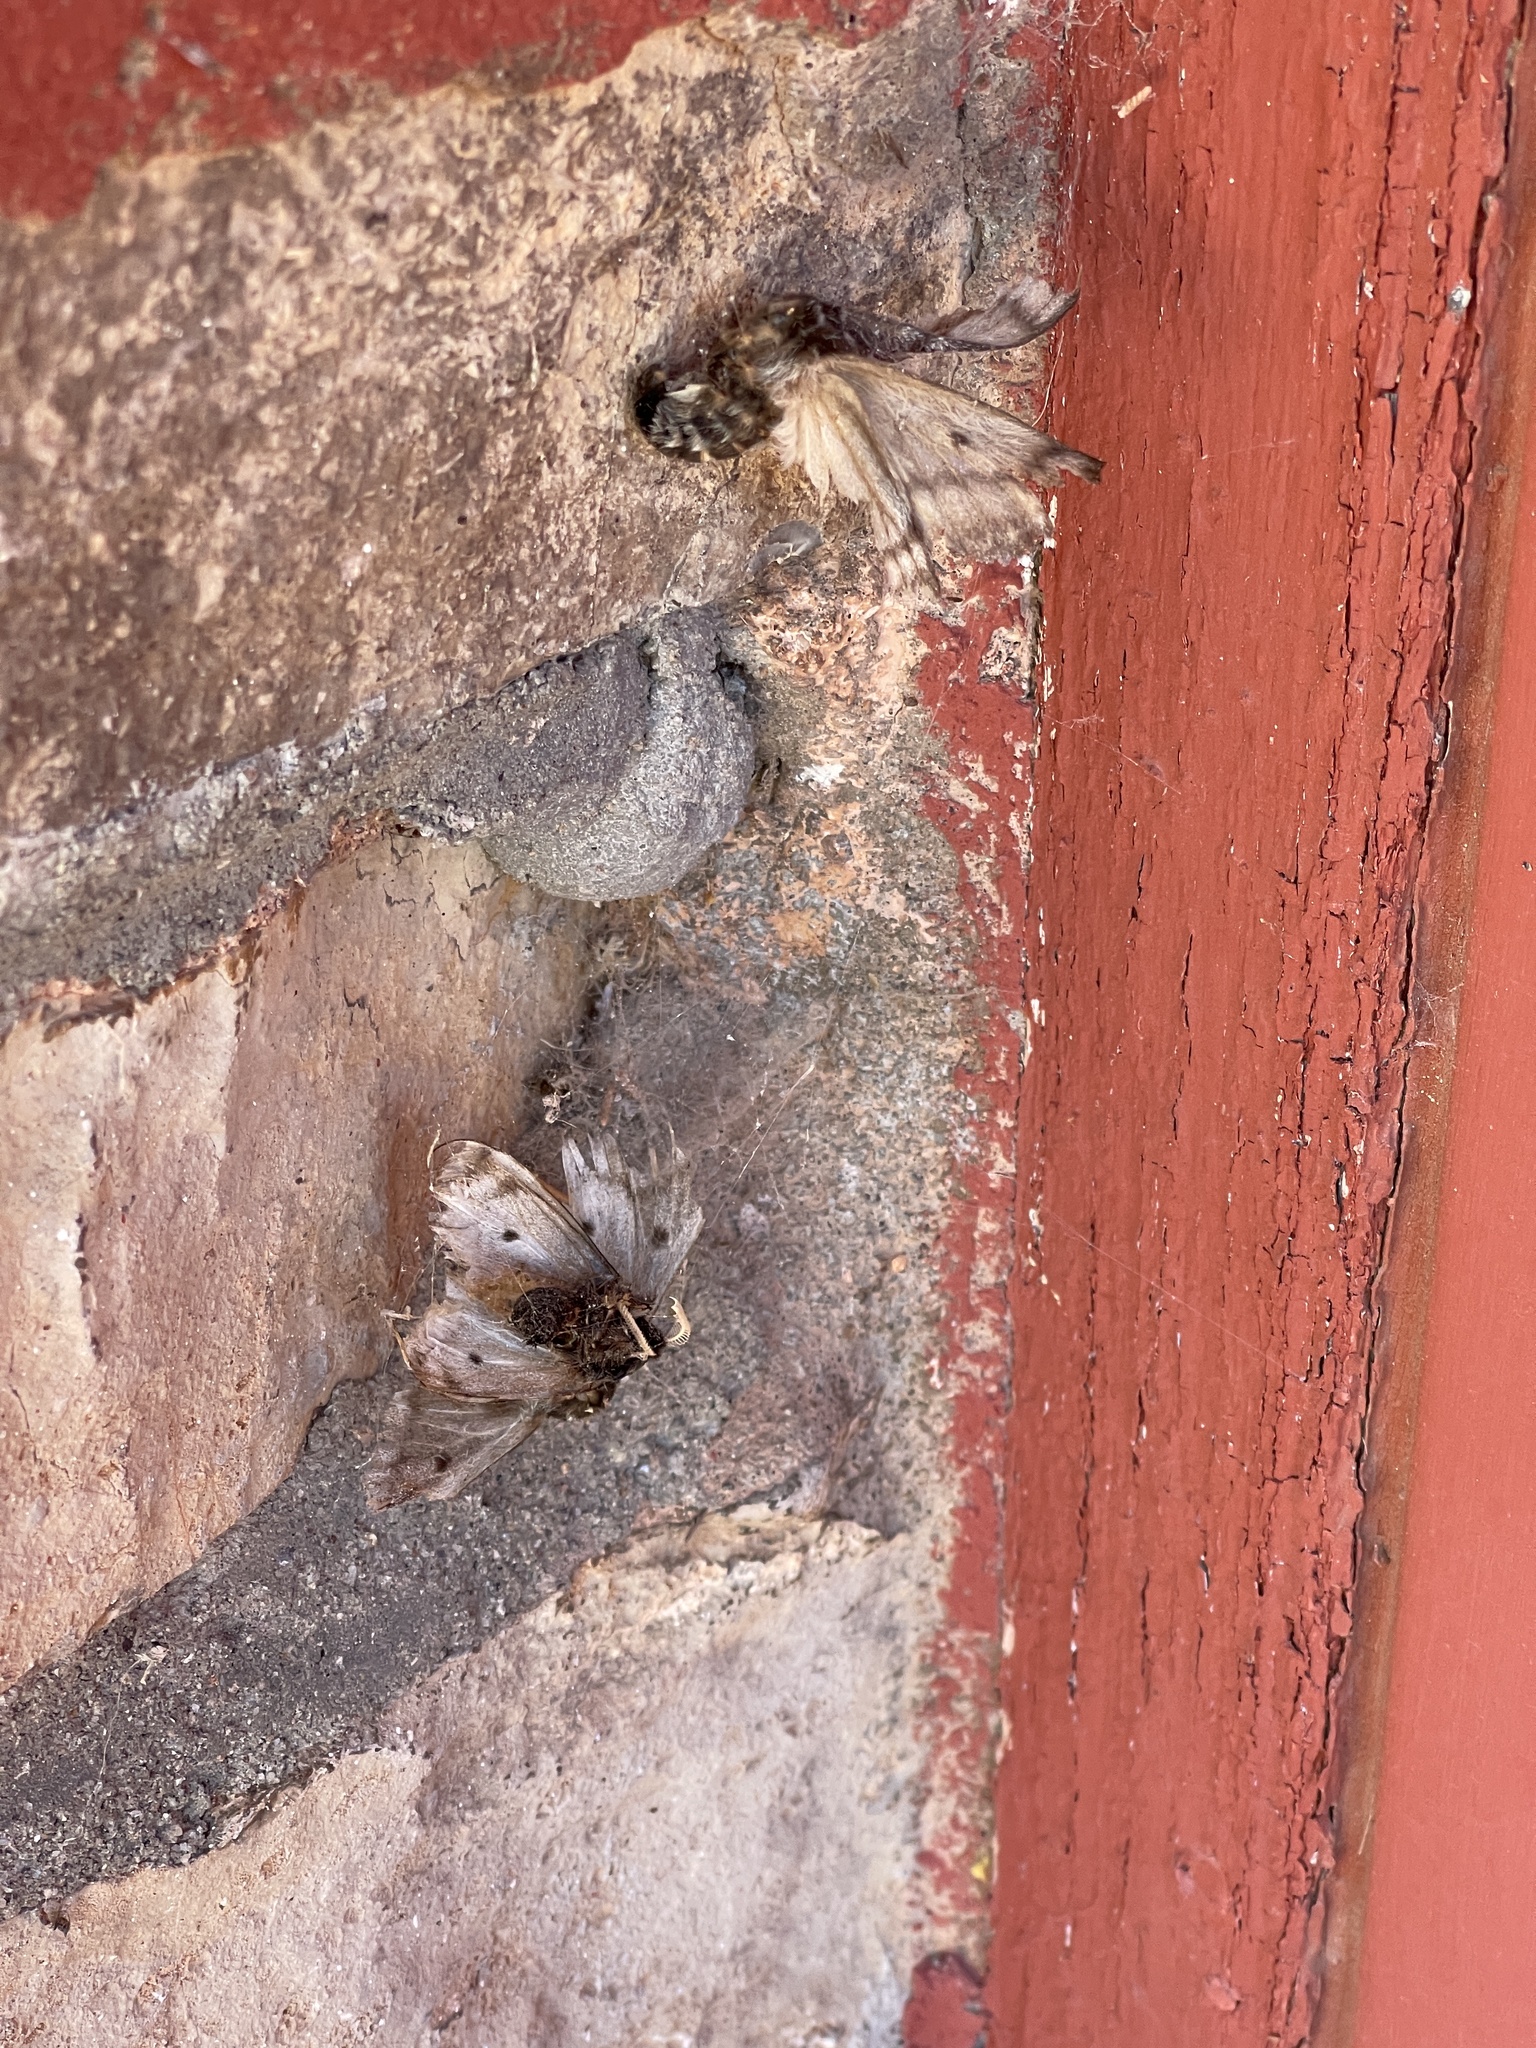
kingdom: Animalia
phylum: Arthropoda
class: Insecta
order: Lepidoptera
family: Saturniidae
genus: Coloradia
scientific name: Coloradia pandora
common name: Pandora pinemoth
